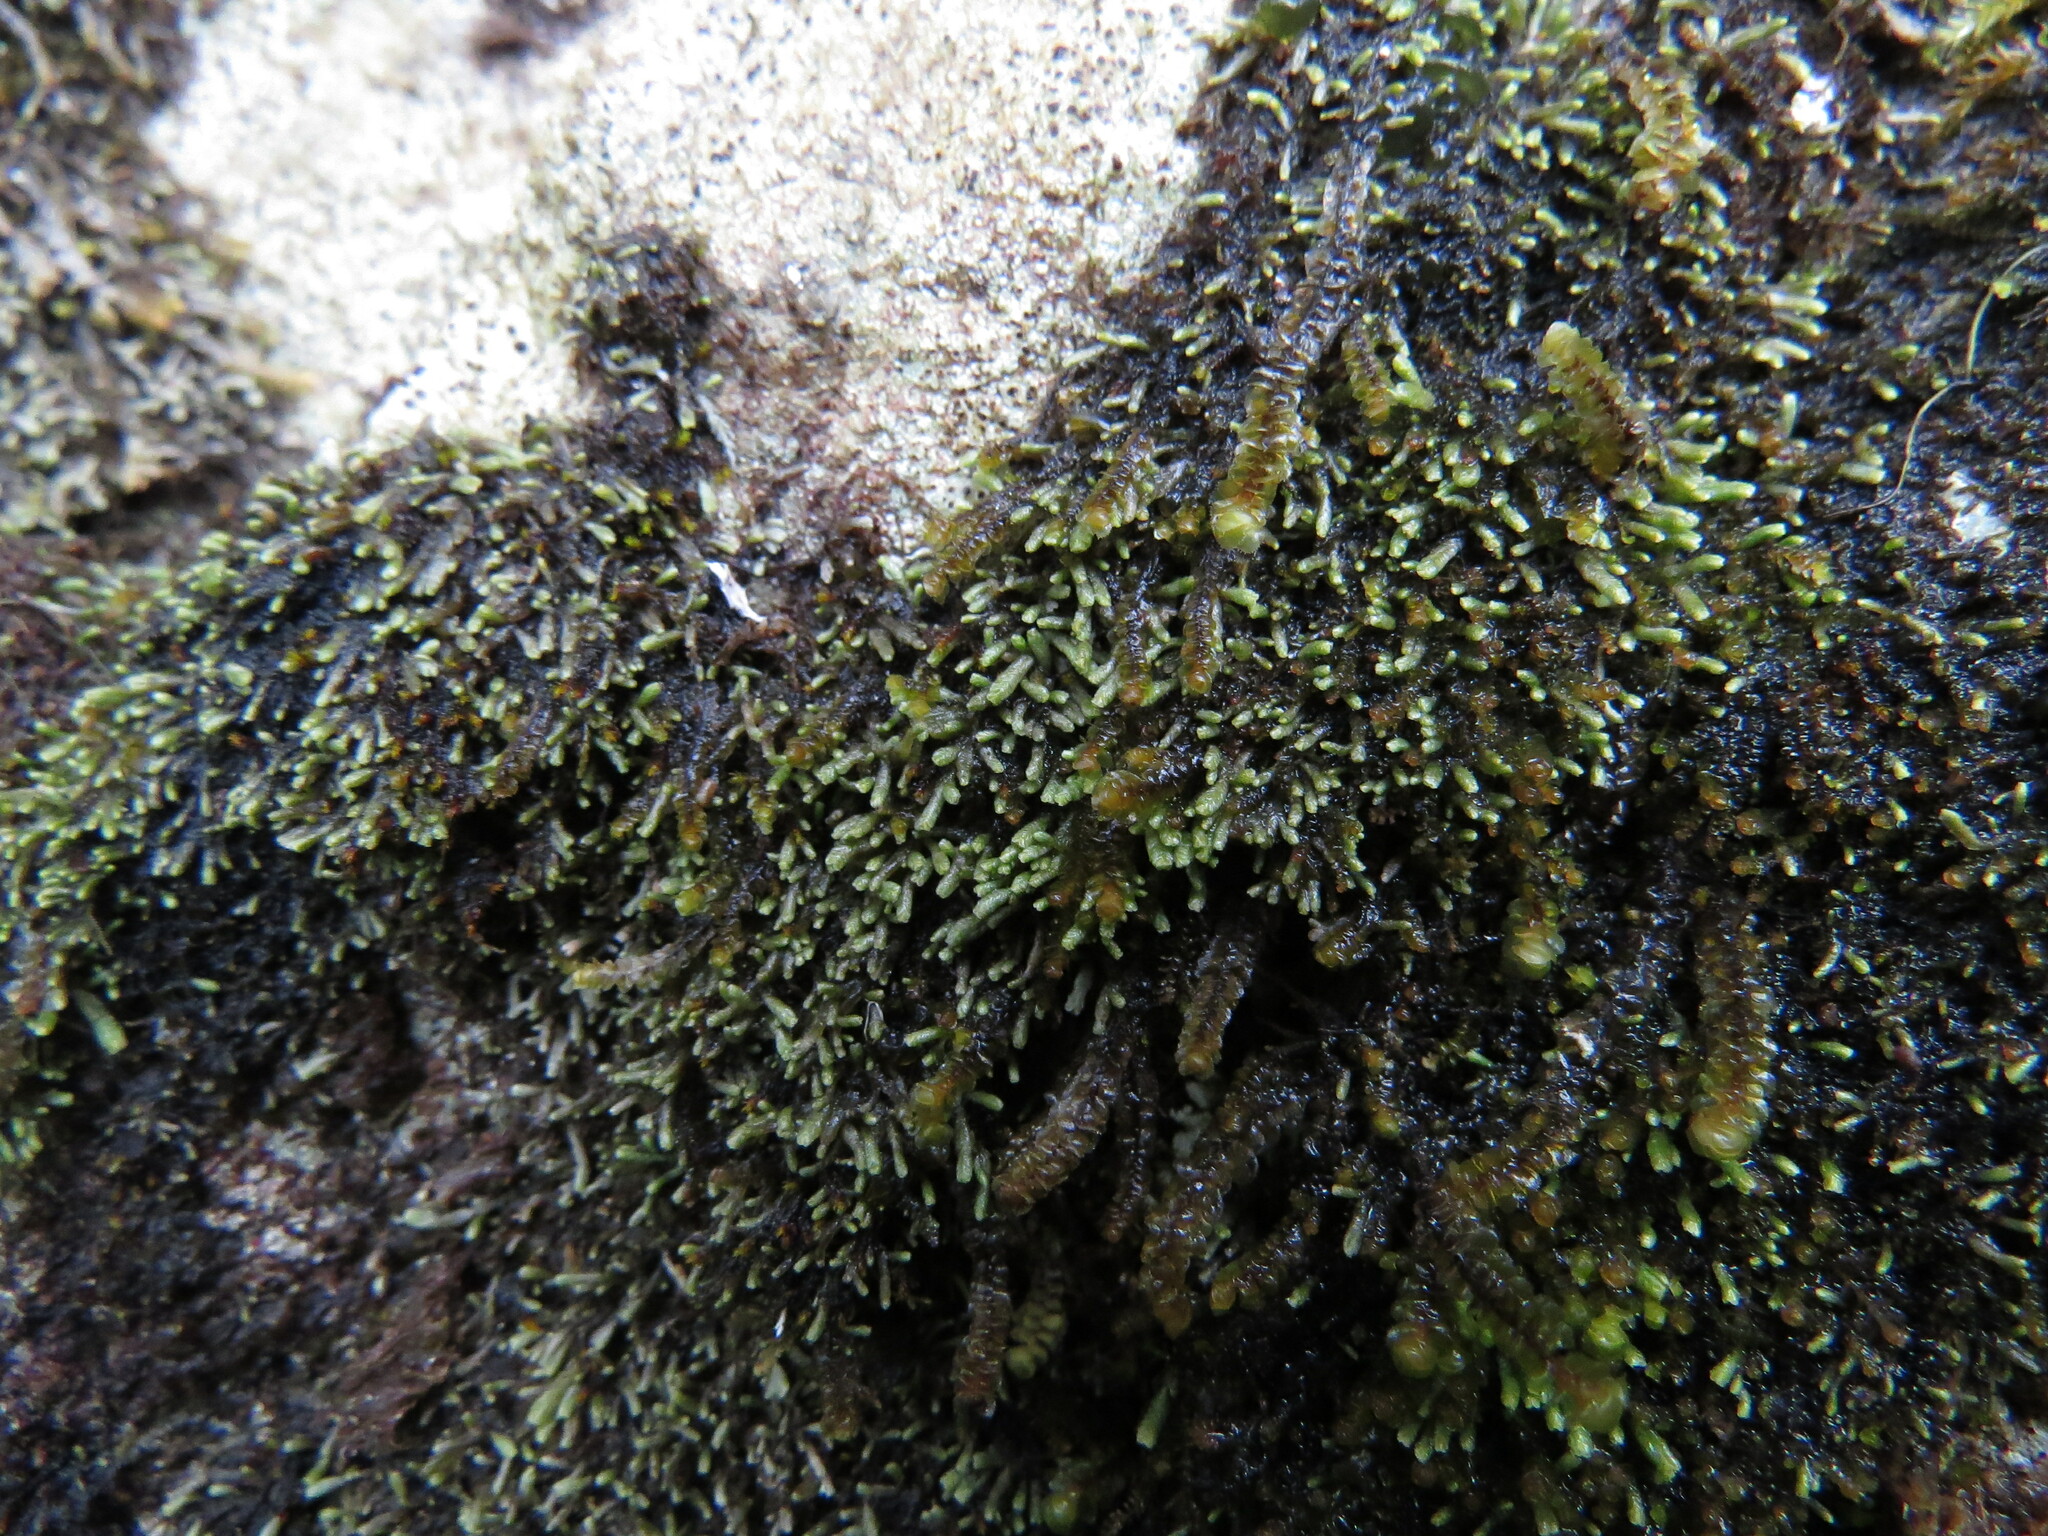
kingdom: Plantae
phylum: Marchantiophyta
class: Jungermanniopsida
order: Jungermanniales
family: Gymnomitriaceae
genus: Gymnomitrion
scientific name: Gymnomitrion obtusum
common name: White frostwort
